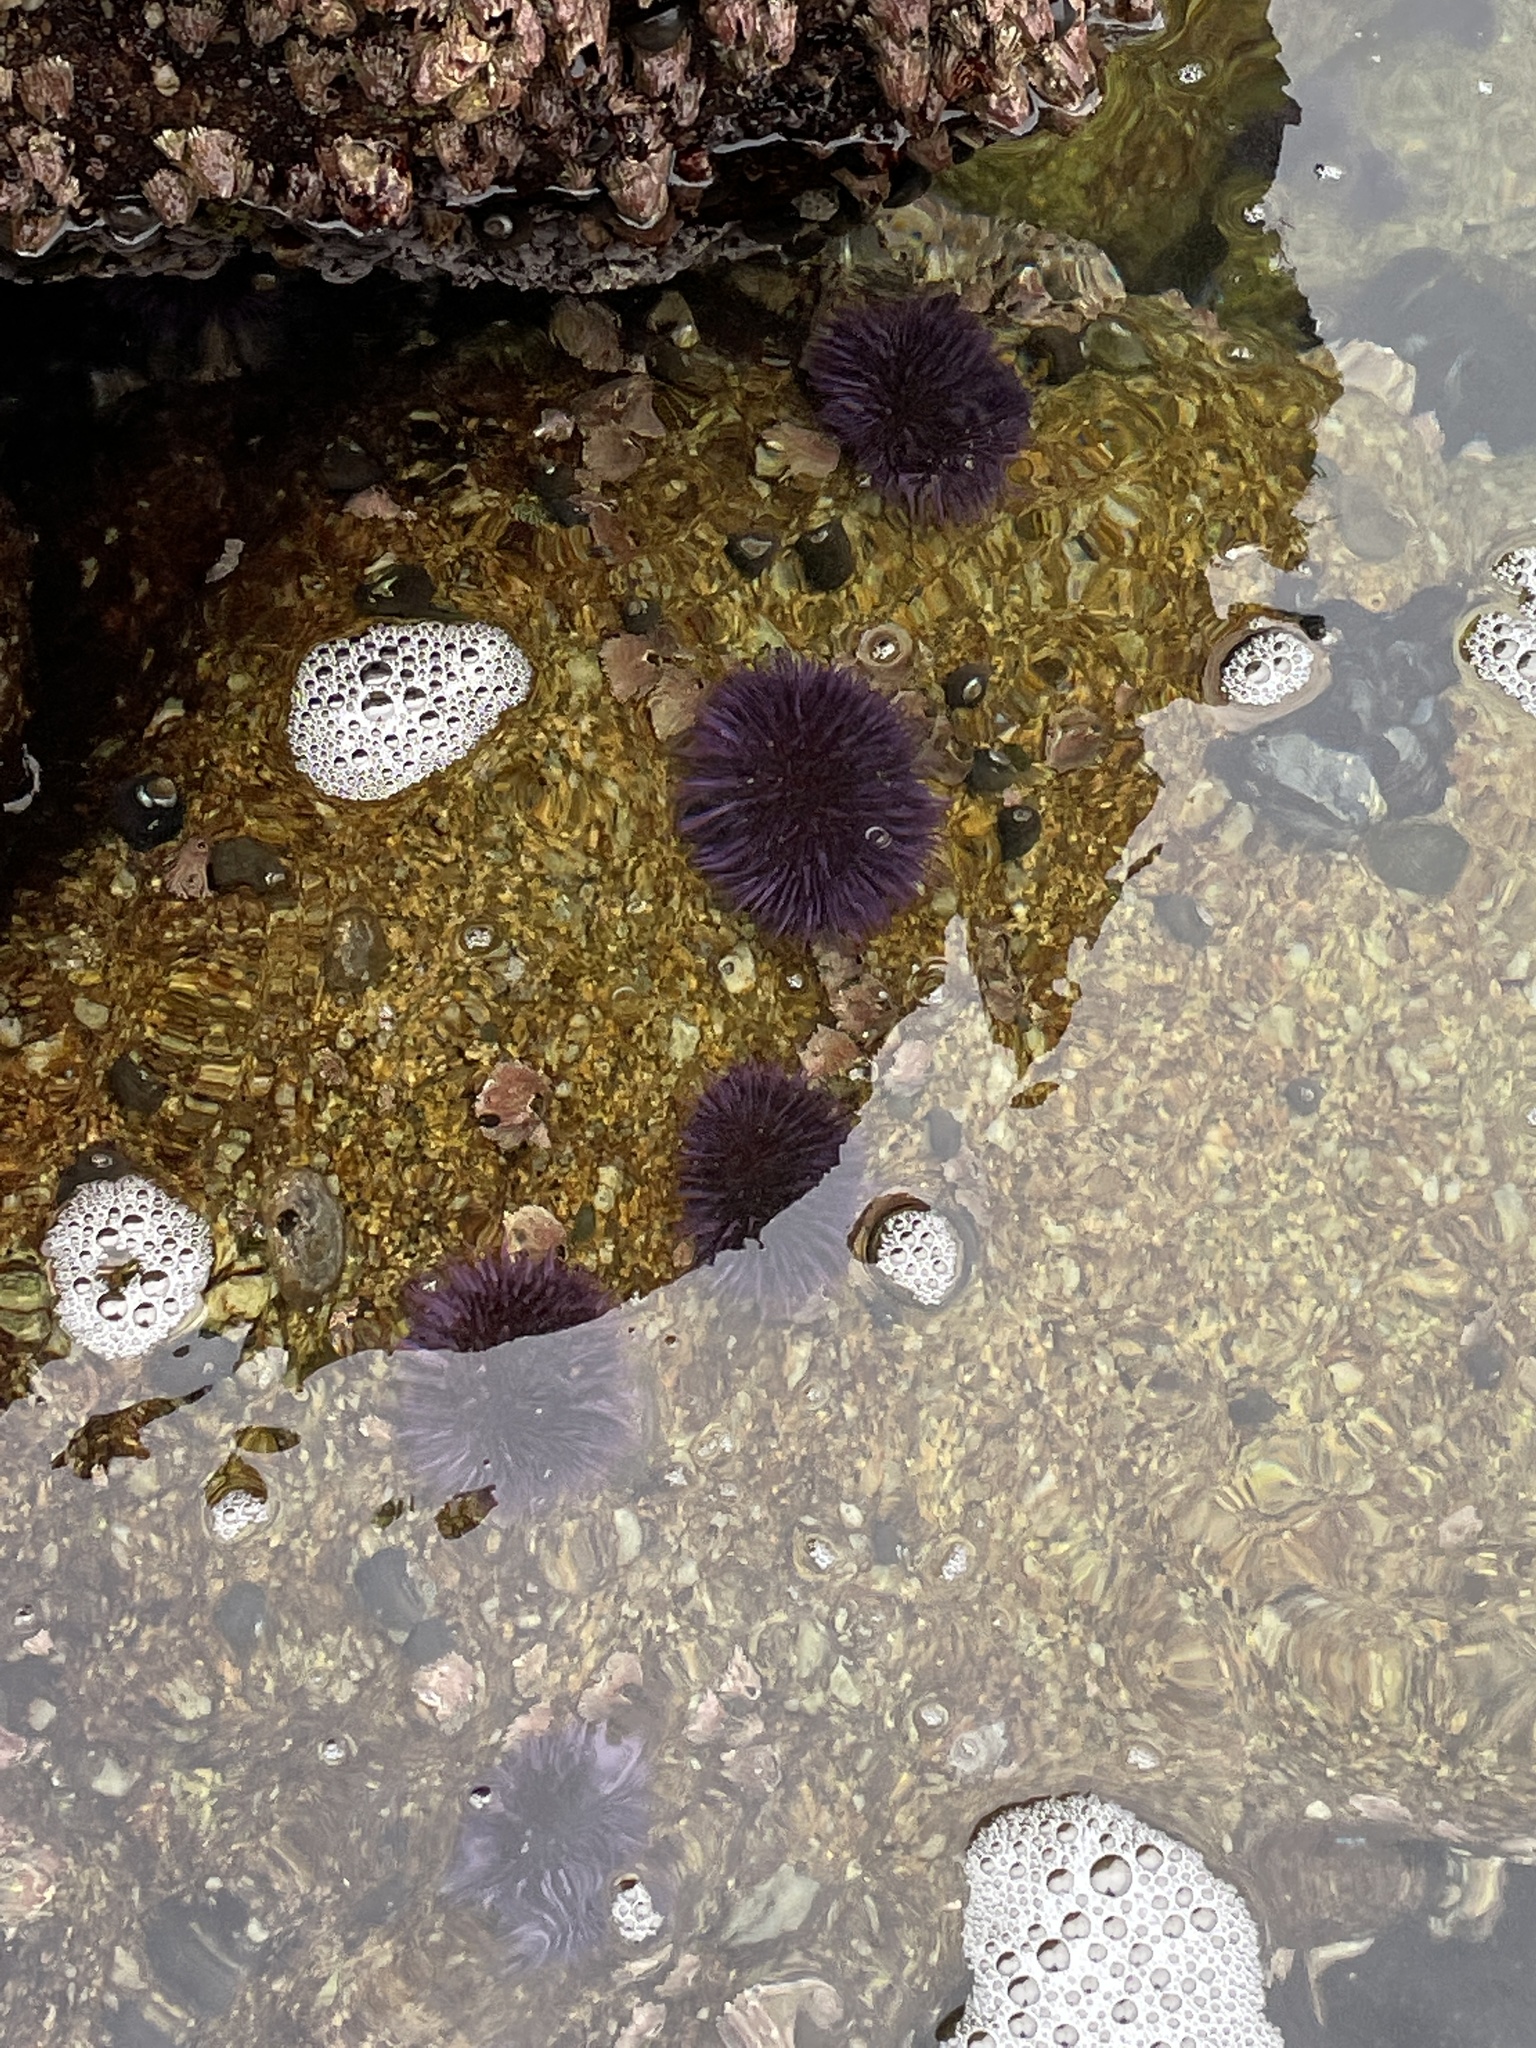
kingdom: Animalia
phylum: Echinodermata
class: Echinoidea
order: Camarodonta
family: Strongylocentrotidae
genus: Strongylocentrotus
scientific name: Strongylocentrotus purpuratus
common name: Purple sea urchin
